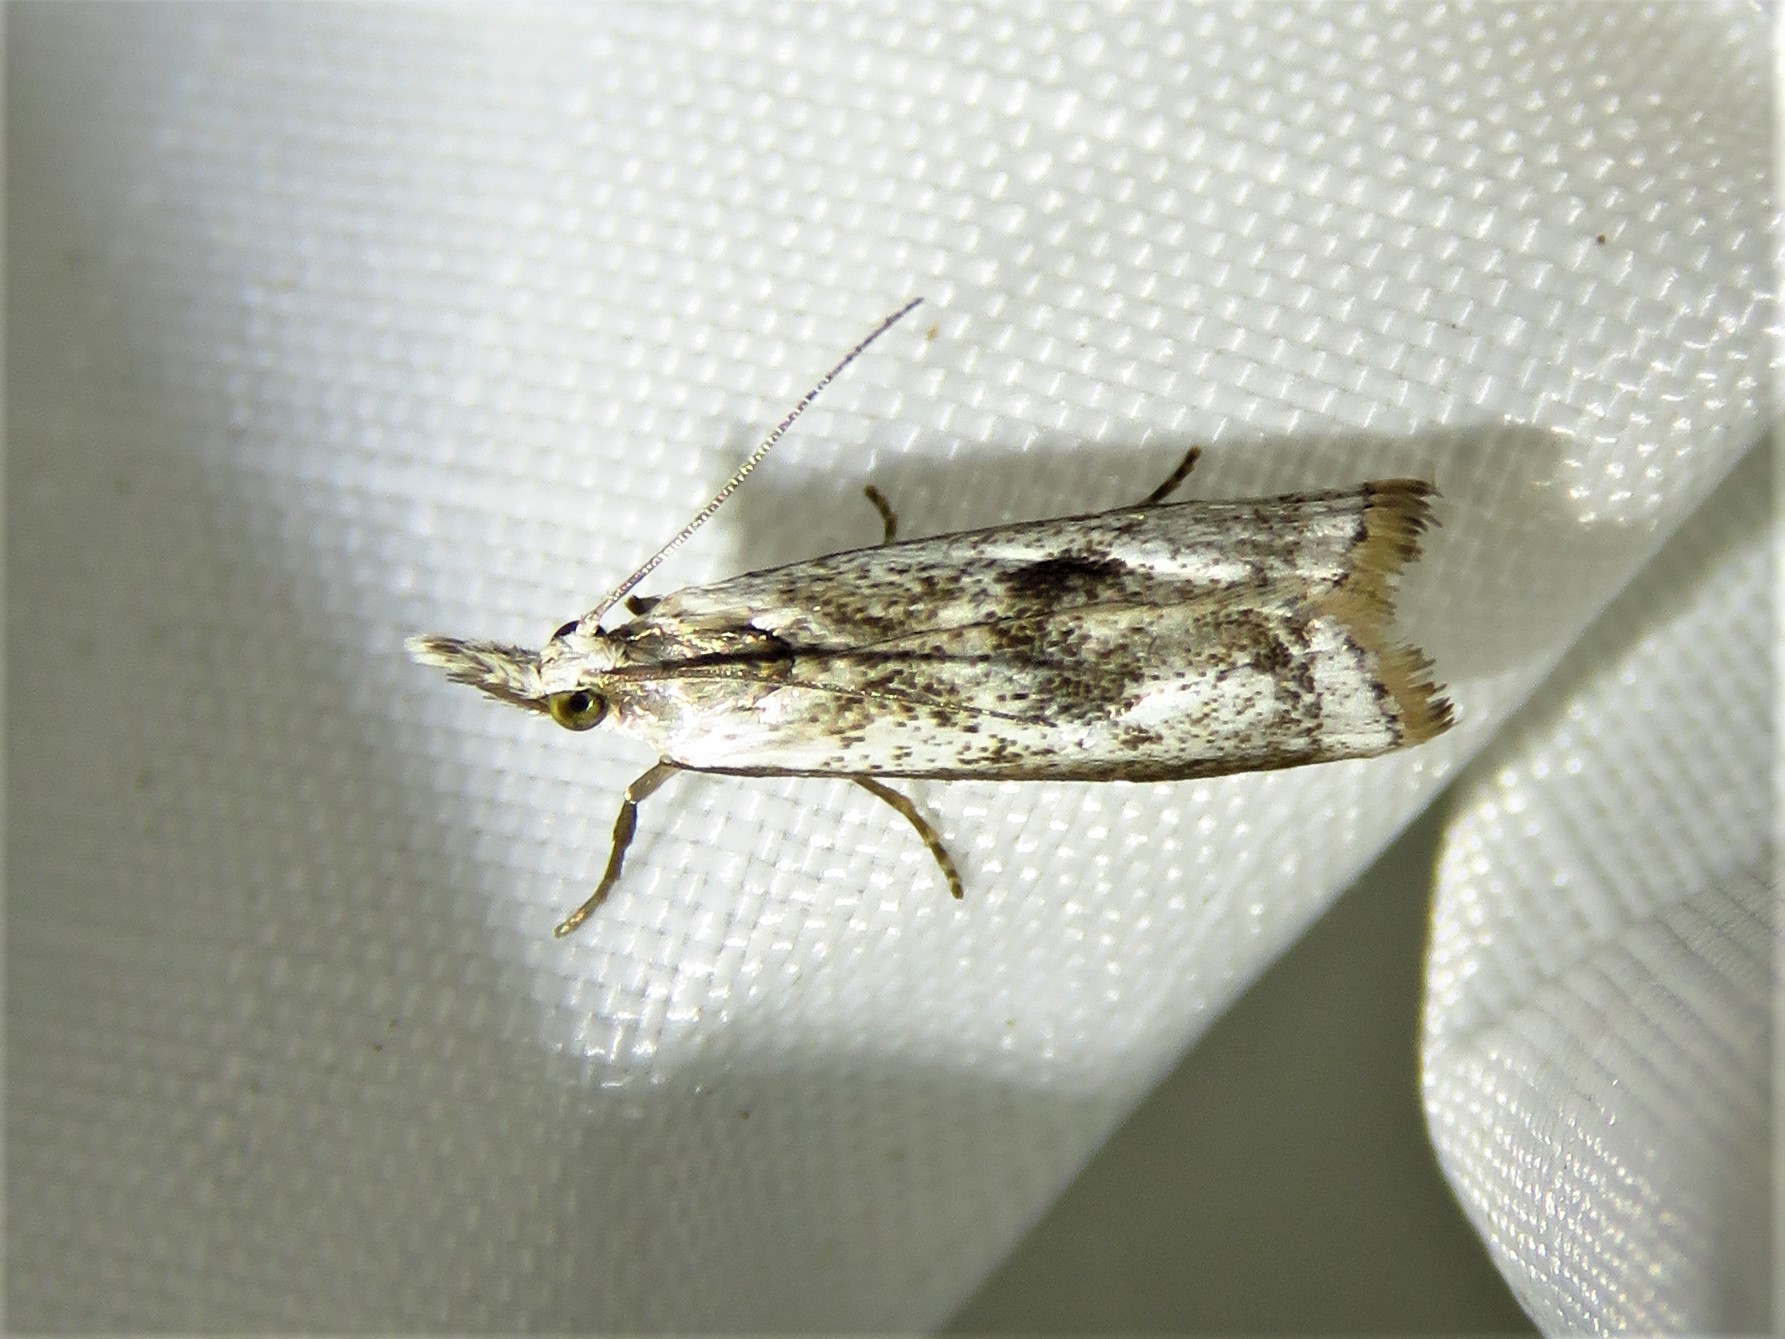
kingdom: Animalia
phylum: Arthropoda
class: Insecta
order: Lepidoptera
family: Crambidae
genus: Microcrambus
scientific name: Microcrambus croesus
